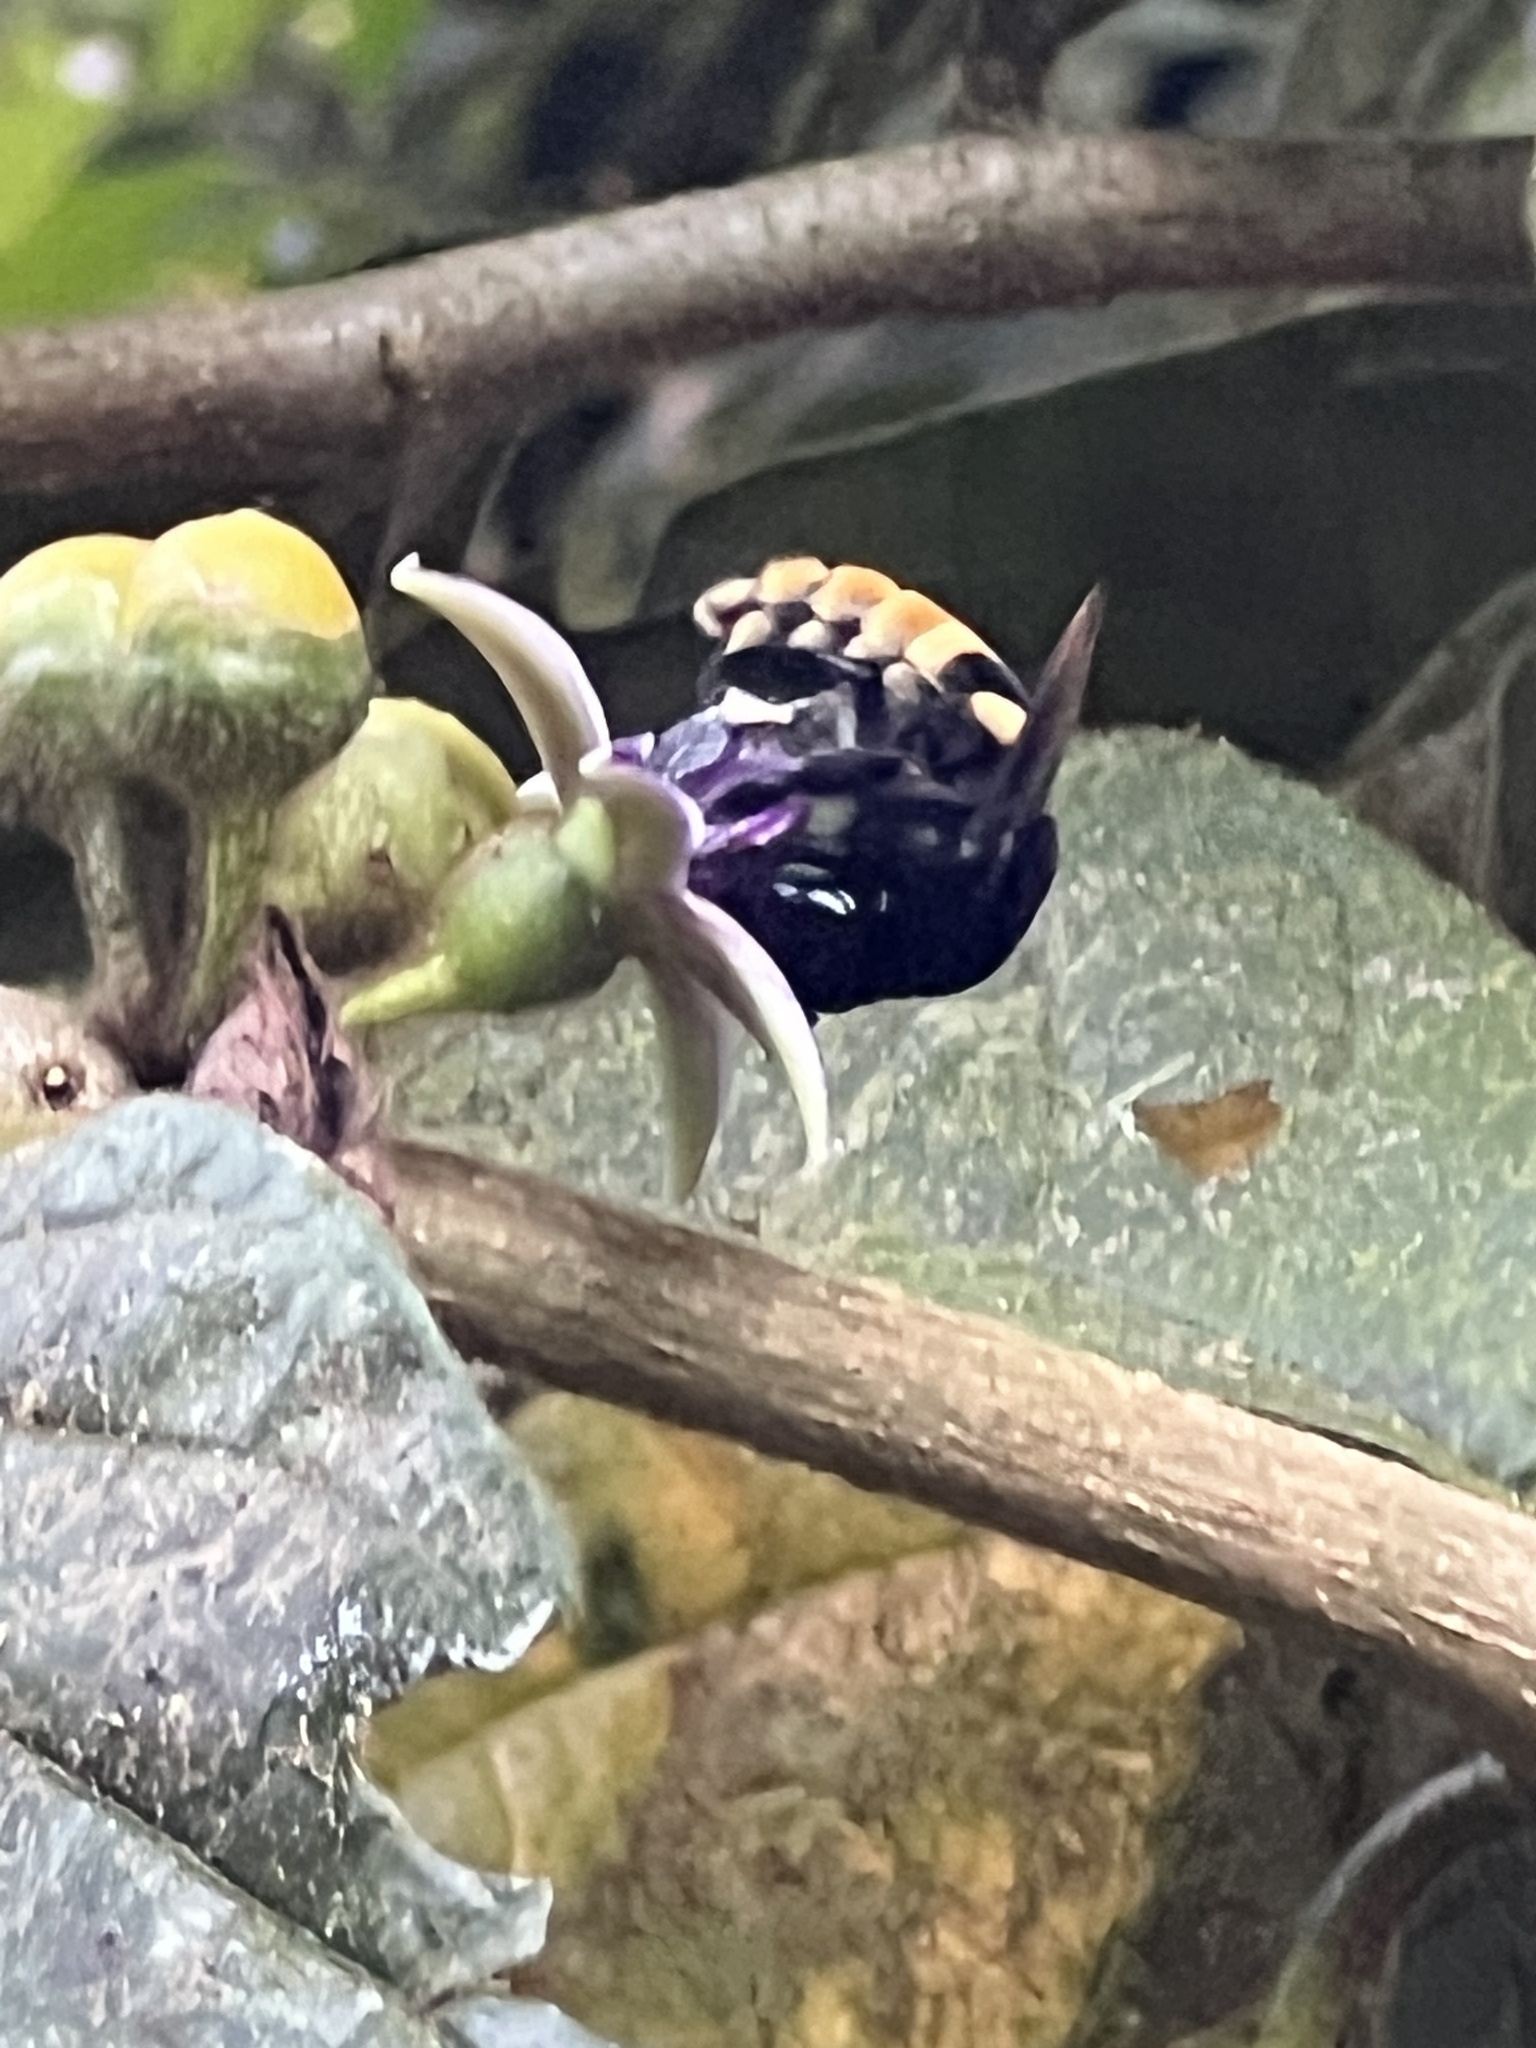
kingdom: Animalia
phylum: Arthropoda
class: Insecta
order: Hymenoptera
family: Apidae
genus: Eulaema
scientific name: Eulaema cingulata
